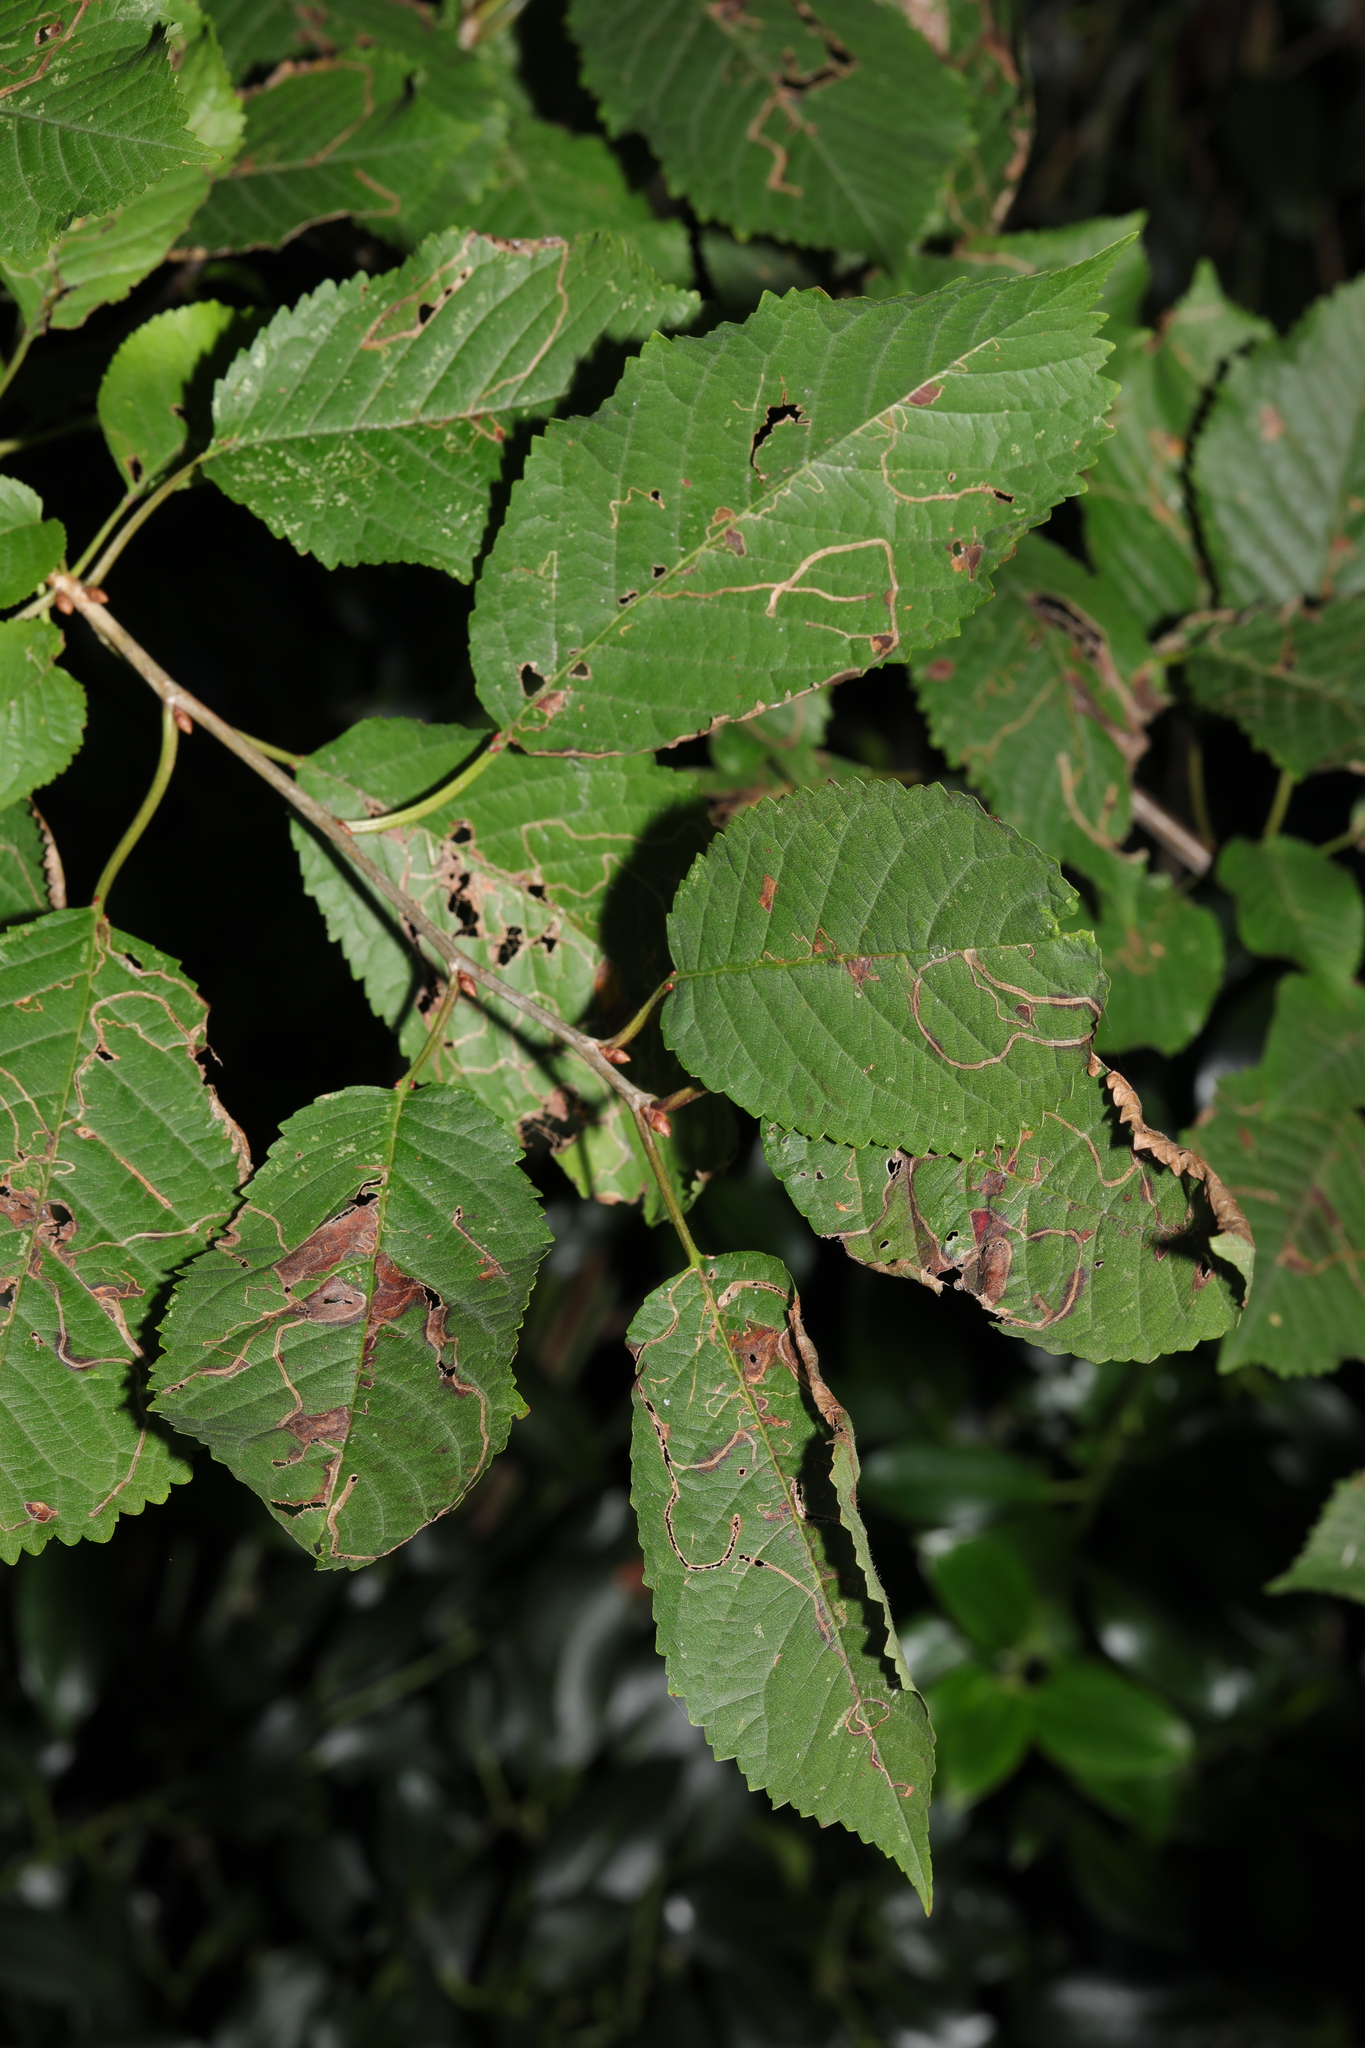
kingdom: Plantae
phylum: Tracheophyta
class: Magnoliopsida
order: Rosales
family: Rosaceae
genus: Prunus
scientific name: Prunus avium
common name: Sweet cherry
